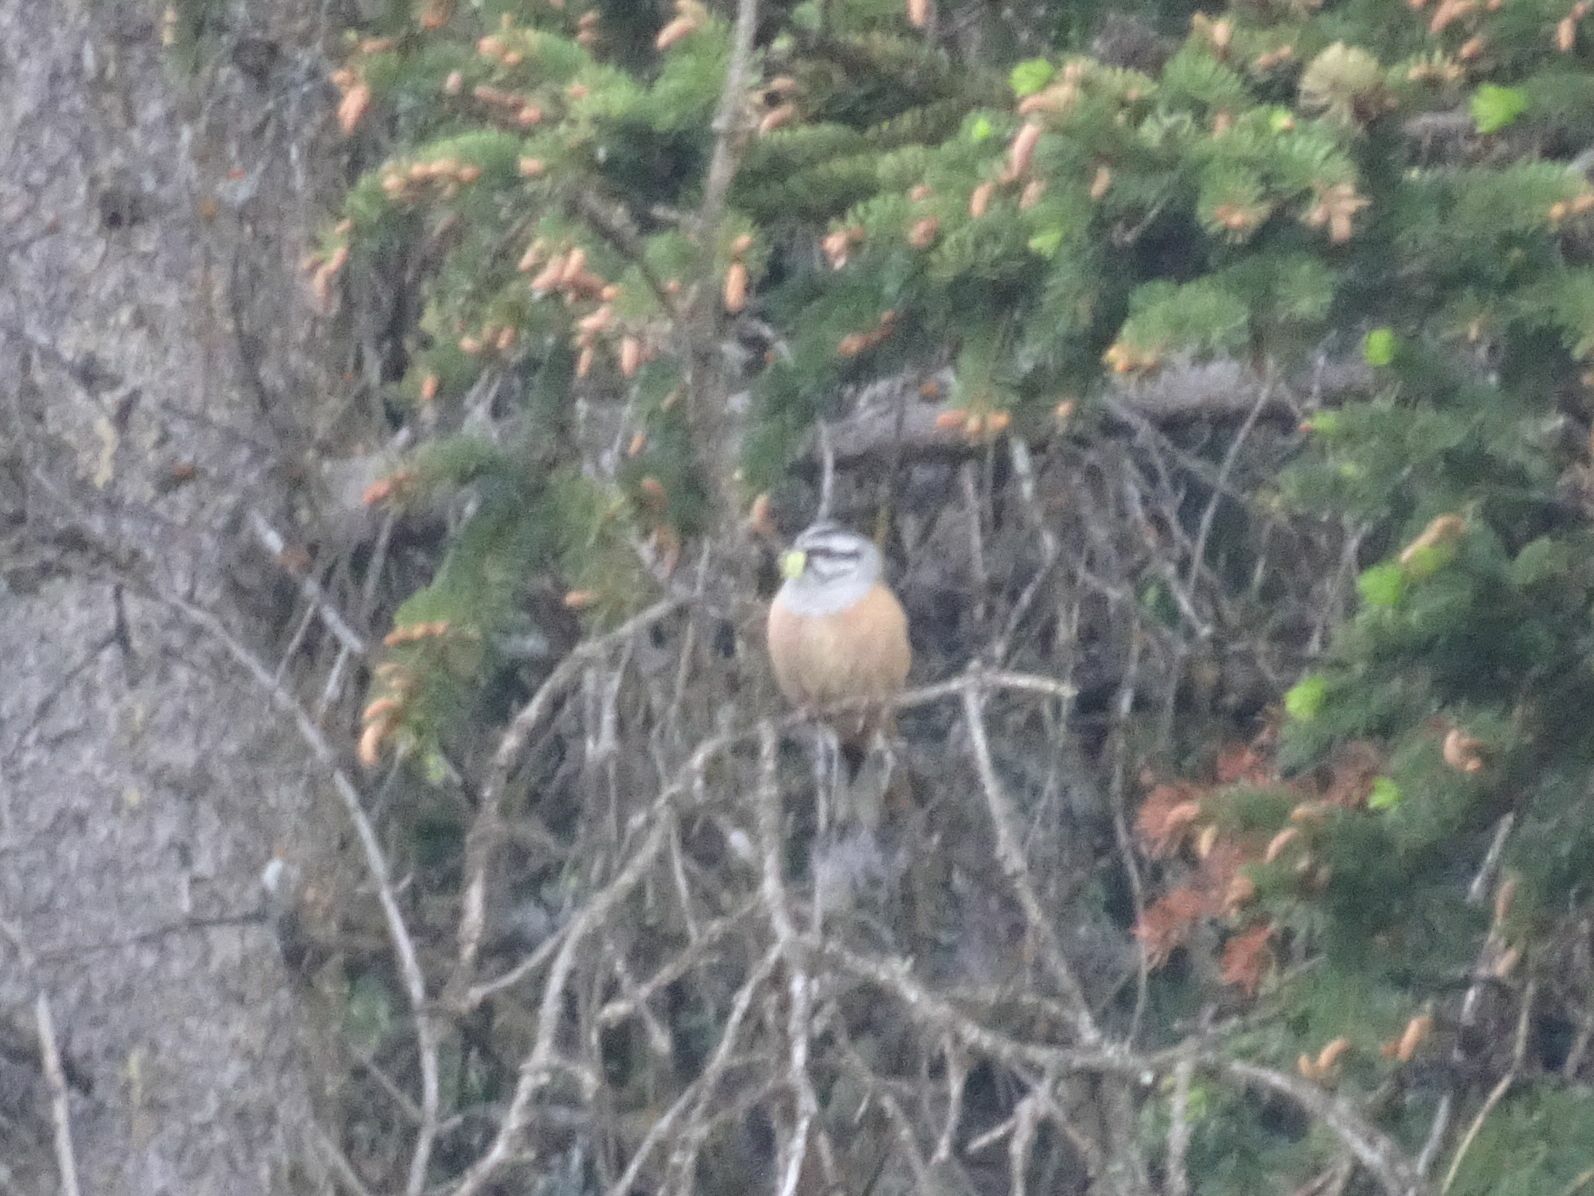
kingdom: Animalia
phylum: Chordata
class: Aves
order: Passeriformes
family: Emberizidae
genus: Emberiza
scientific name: Emberiza cia
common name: Rock bunting
